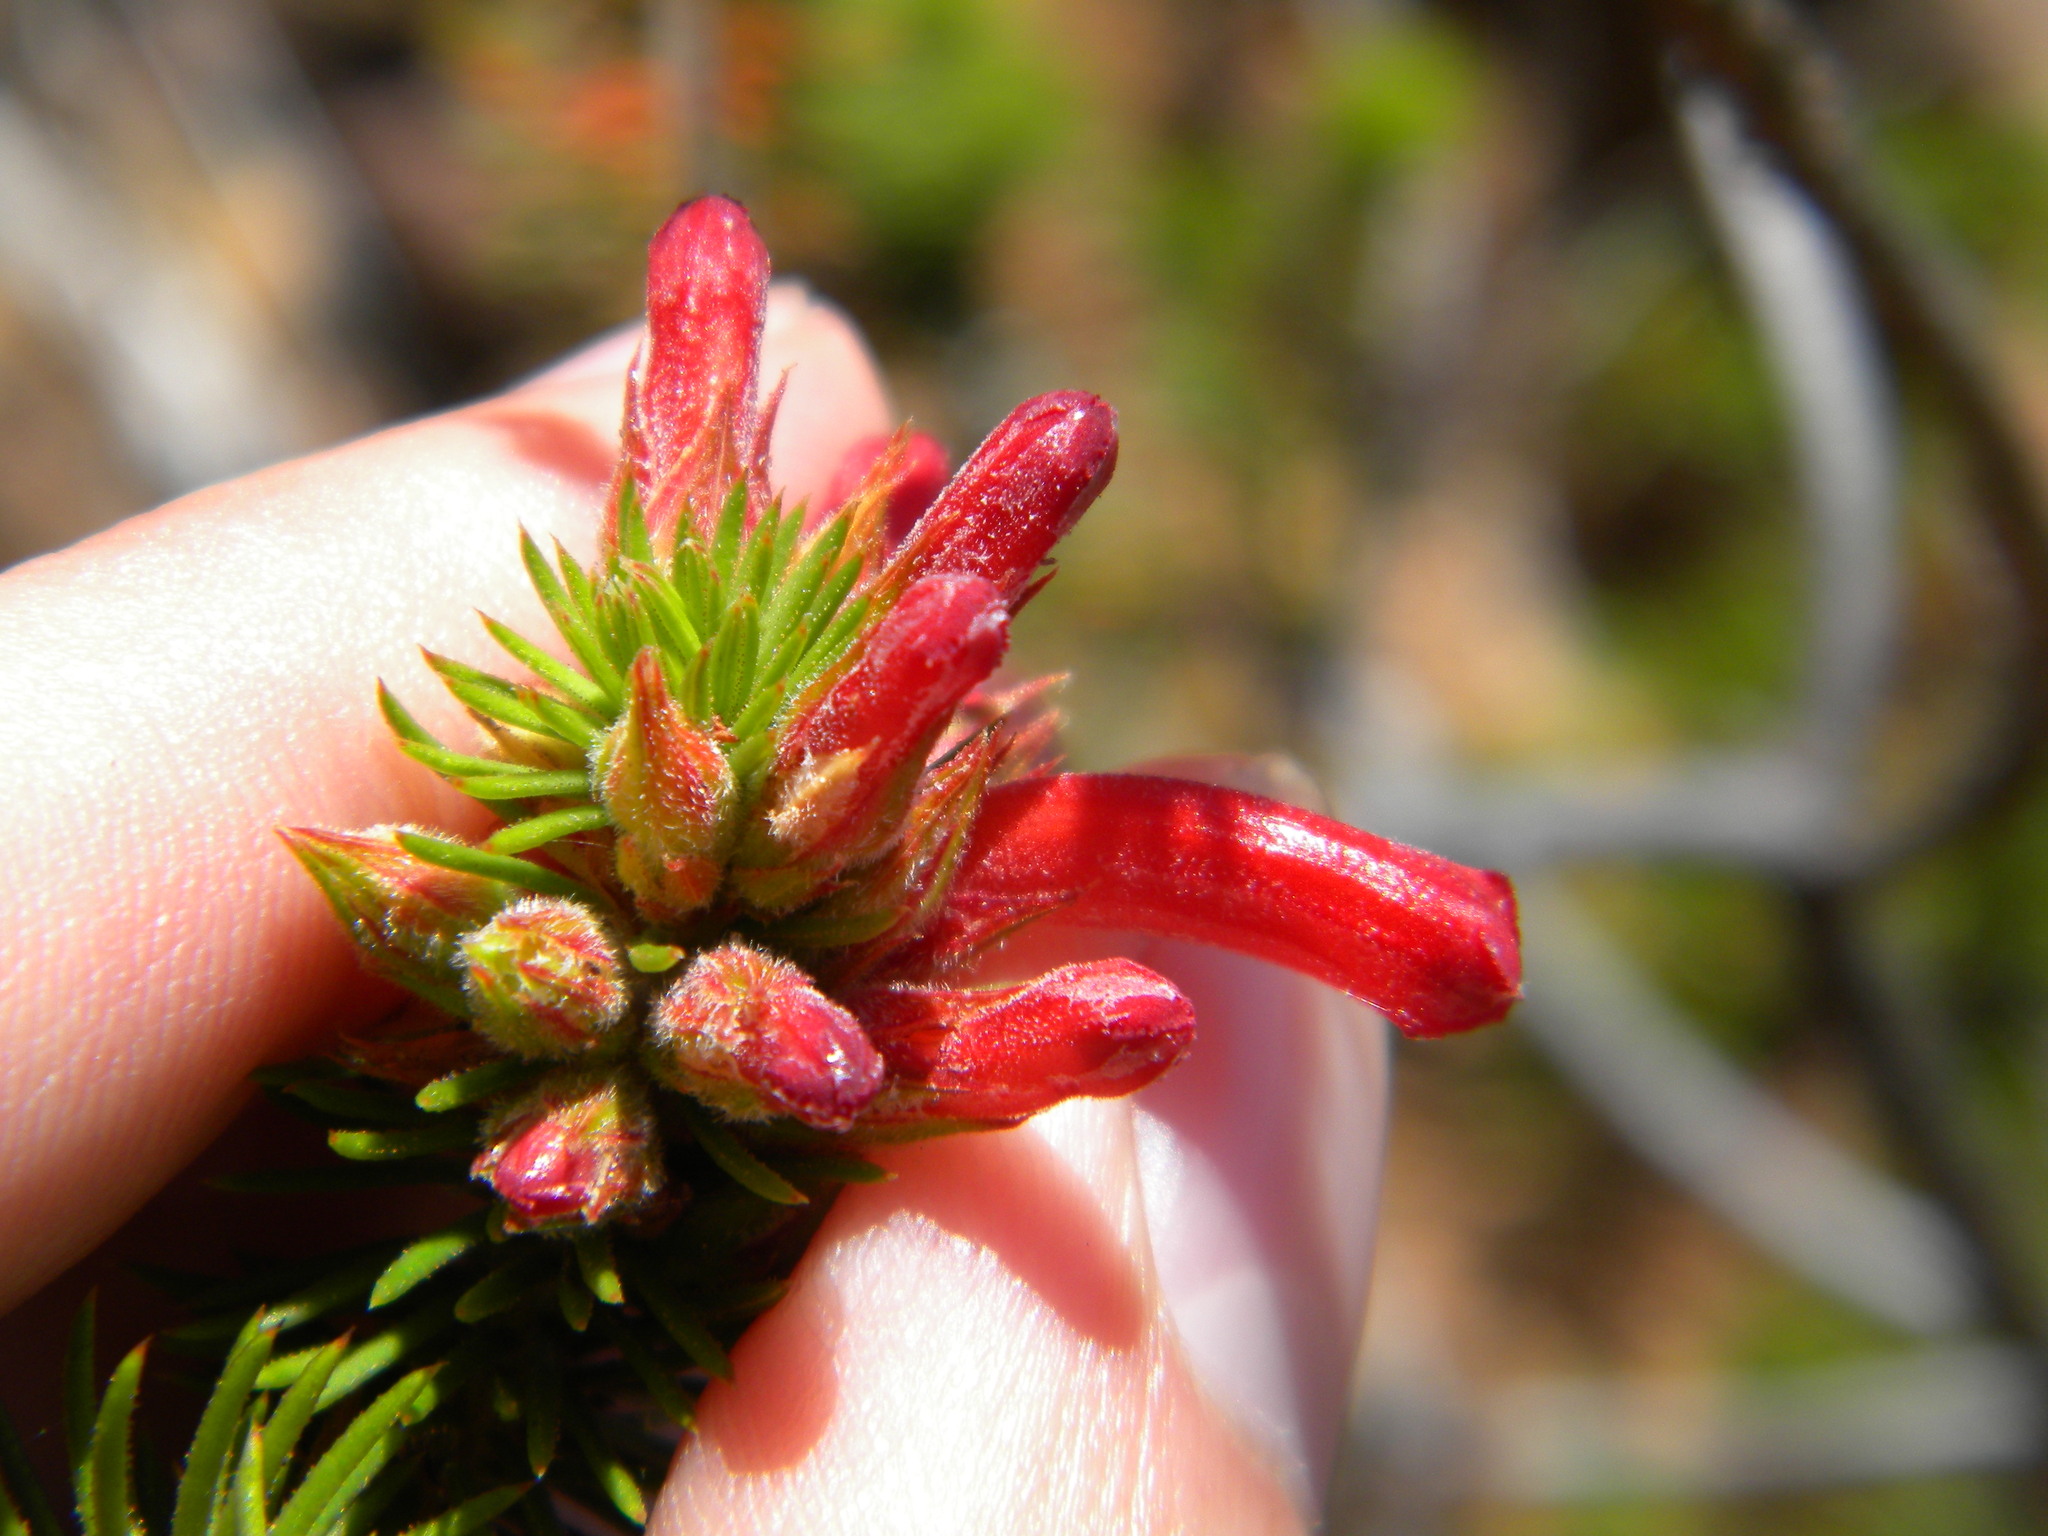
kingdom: Plantae
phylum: Tracheophyta
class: Magnoliopsida
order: Ericales
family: Ericaceae
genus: Erica
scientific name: Erica abietina
